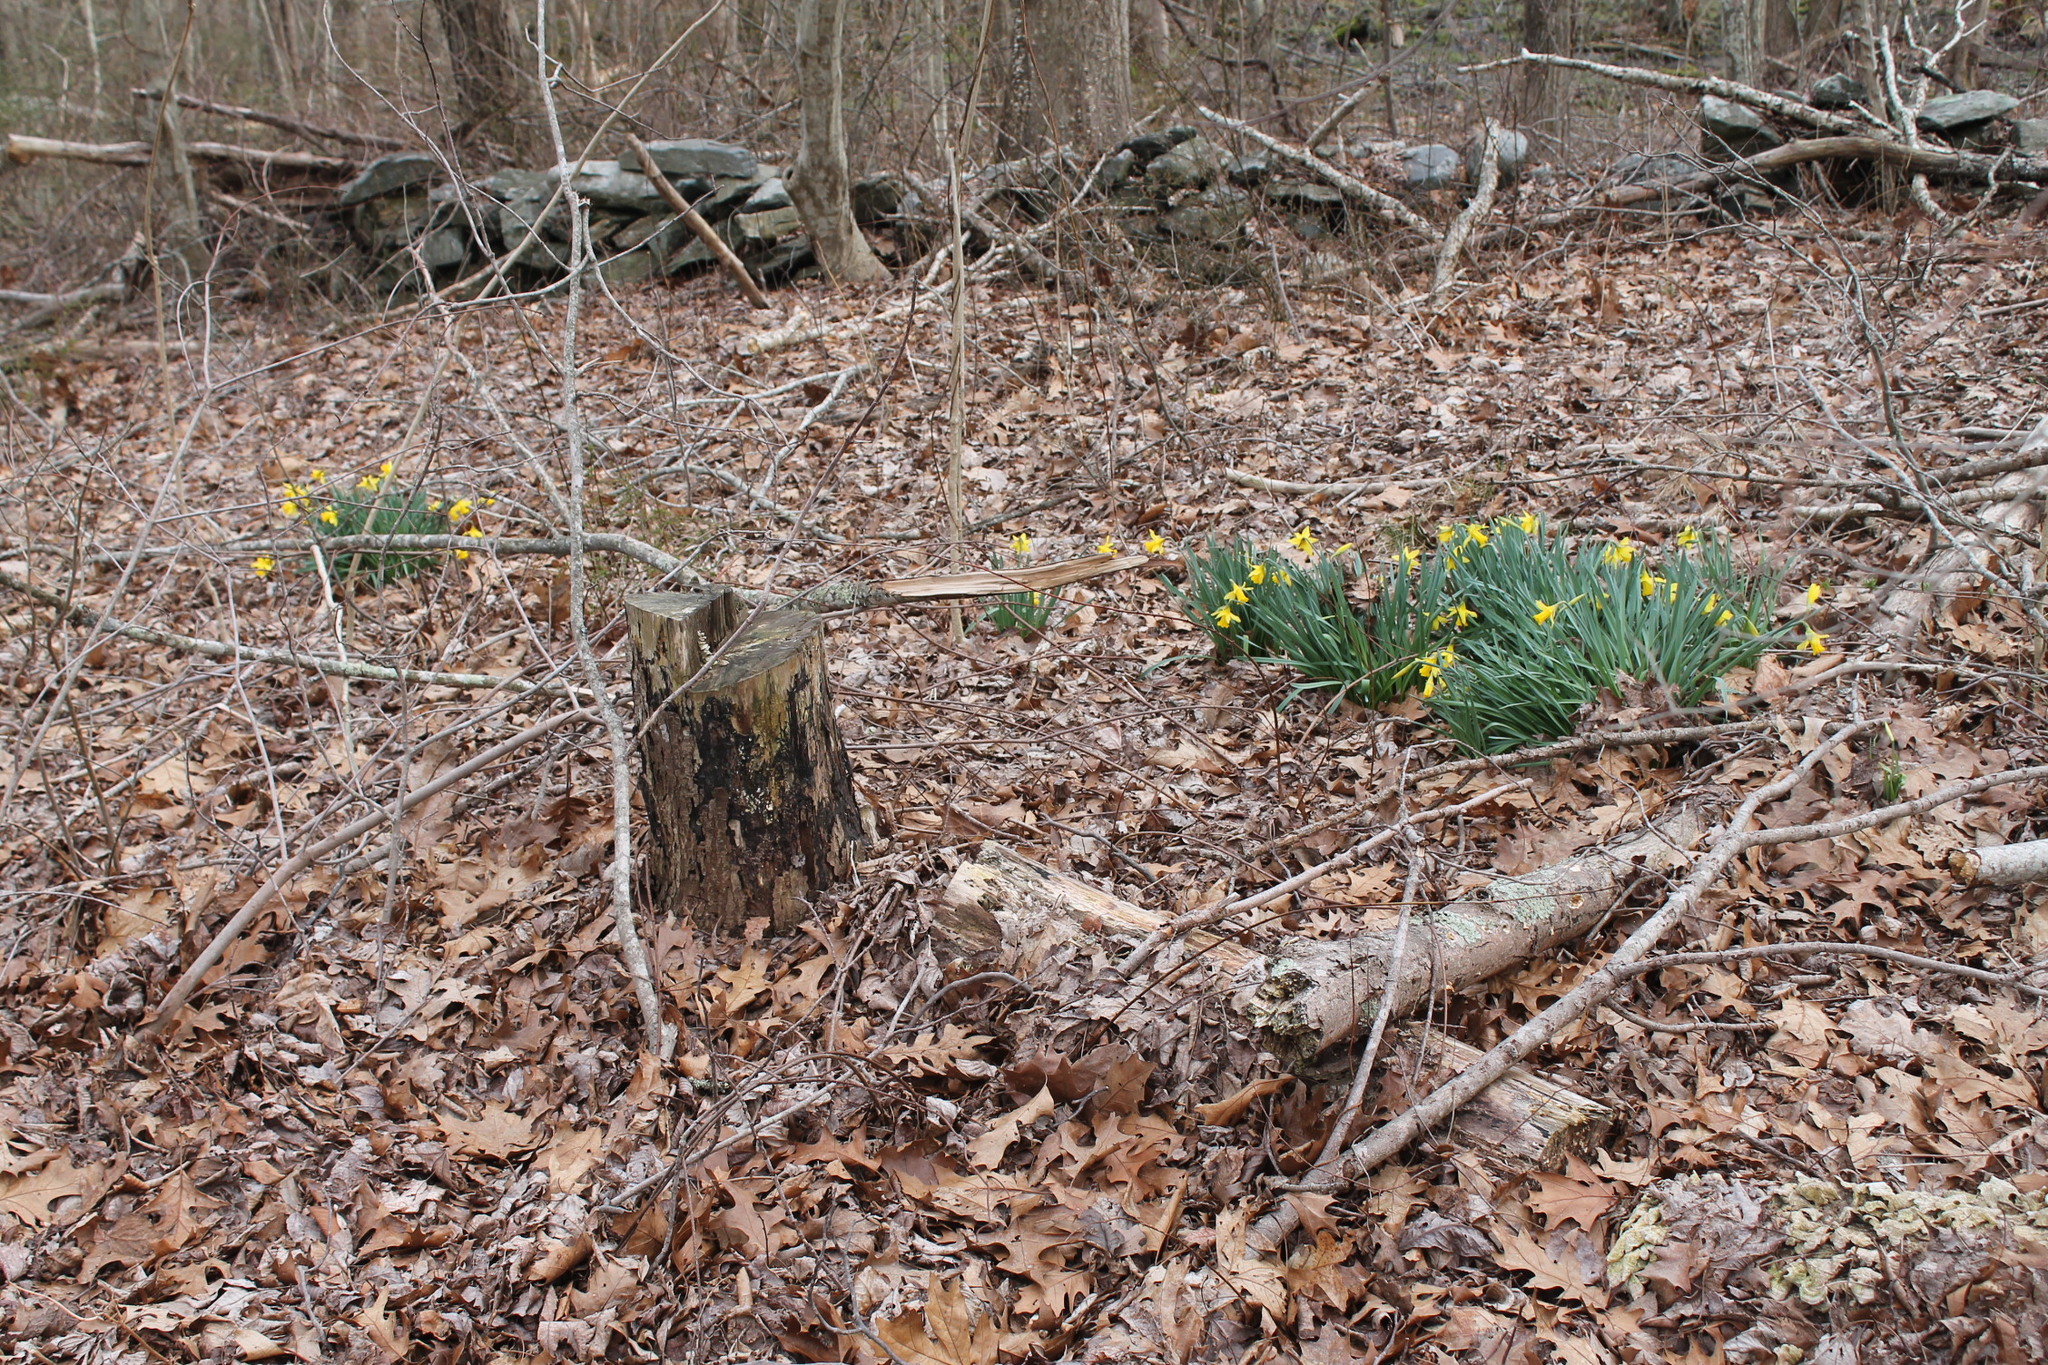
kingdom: Plantae
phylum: Tracheophyta
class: Liliopsida
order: Asparagales
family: Amaryllidaceae
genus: Narcissus
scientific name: Narcissus pseudonarcissus
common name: Daffodil
